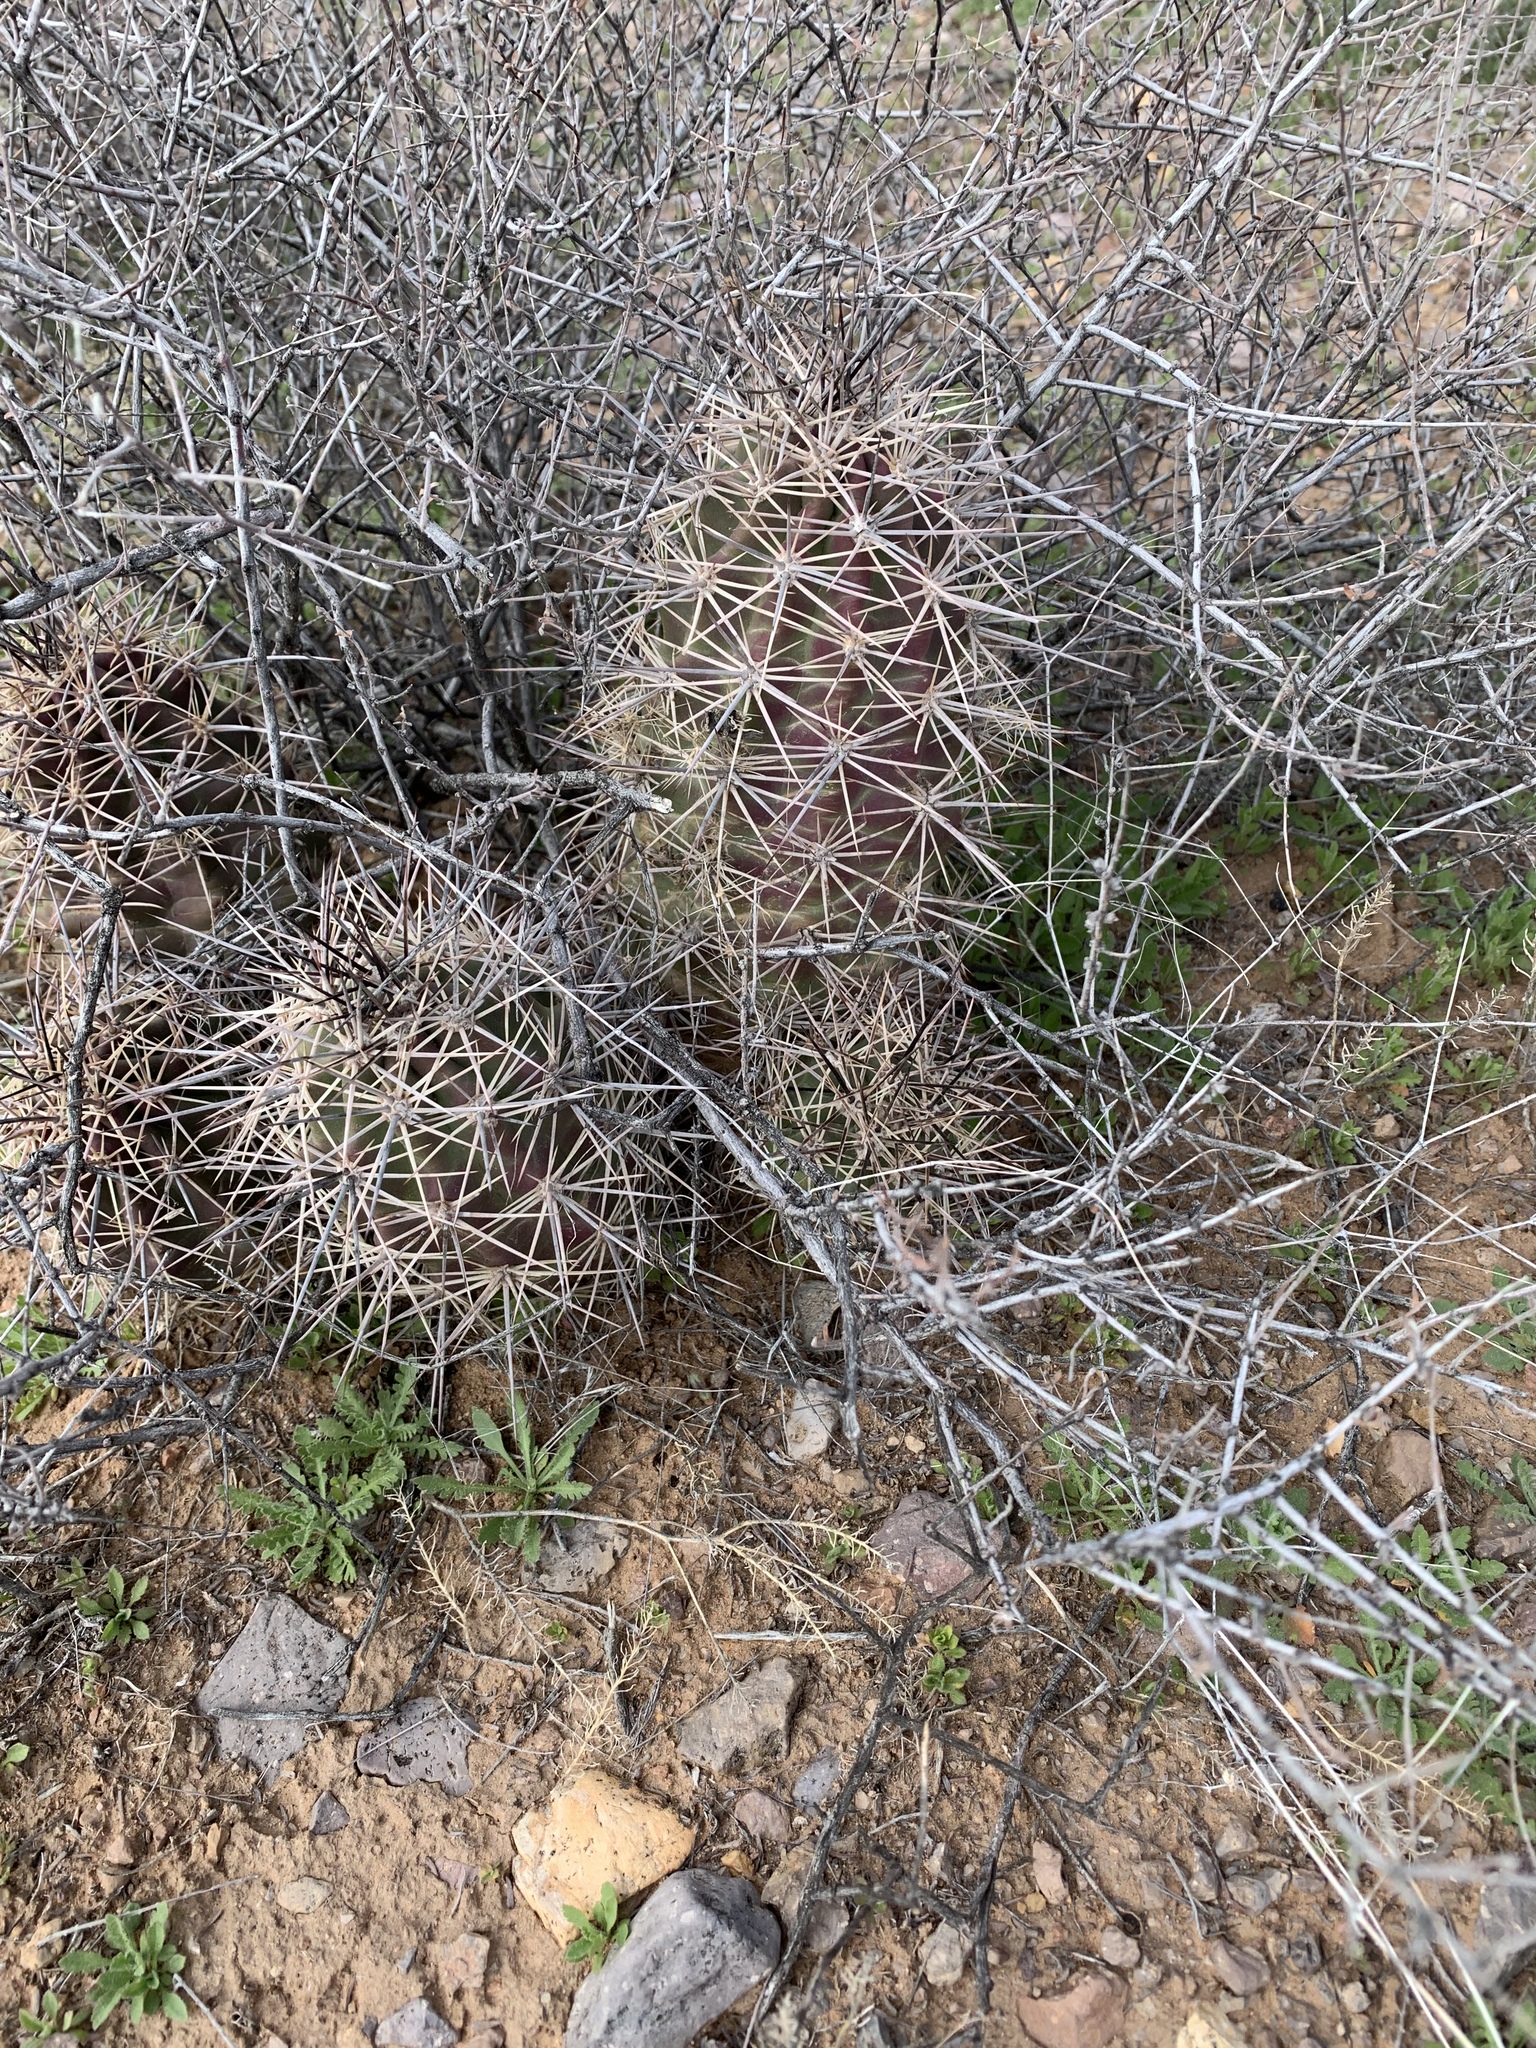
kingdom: Plantae
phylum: Tracheophyta
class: Magnoliopsida
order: Caryophyllales
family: Cactaceae
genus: Echinocereus
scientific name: Echinocereus coccineus
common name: Scarlet hedgehog cactus
